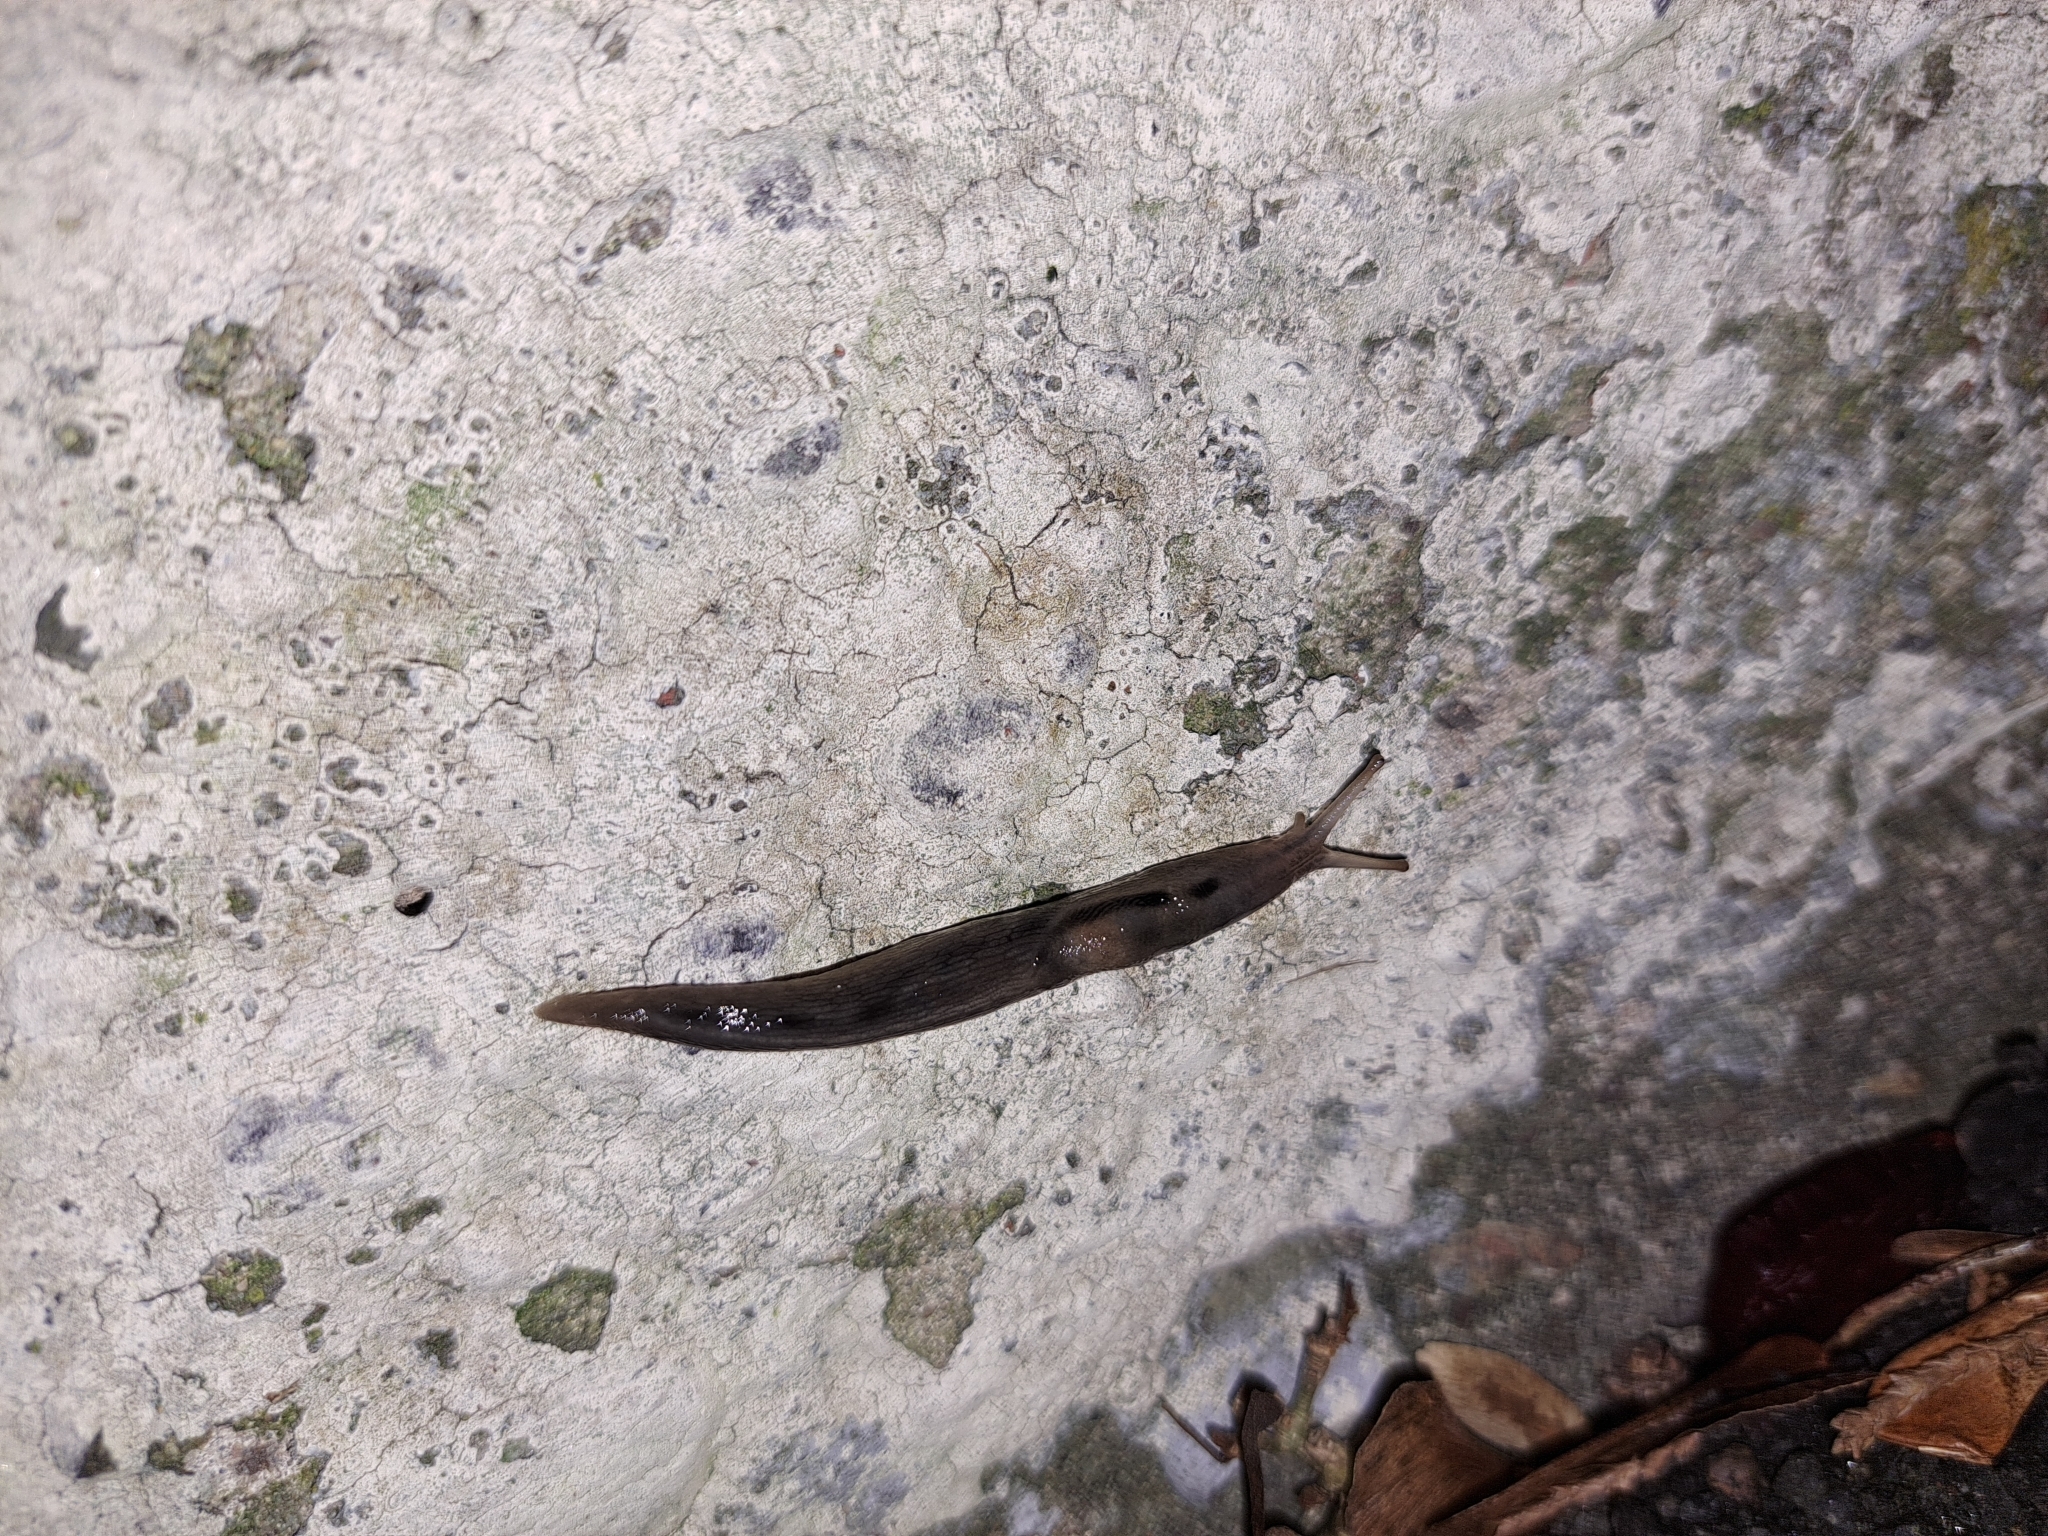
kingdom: Animalia
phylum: Mollusca
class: Gastropoda
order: Stylommatophora
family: Limacidae
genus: Lehmannia
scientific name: Lehmannia marginata
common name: Tree slug
